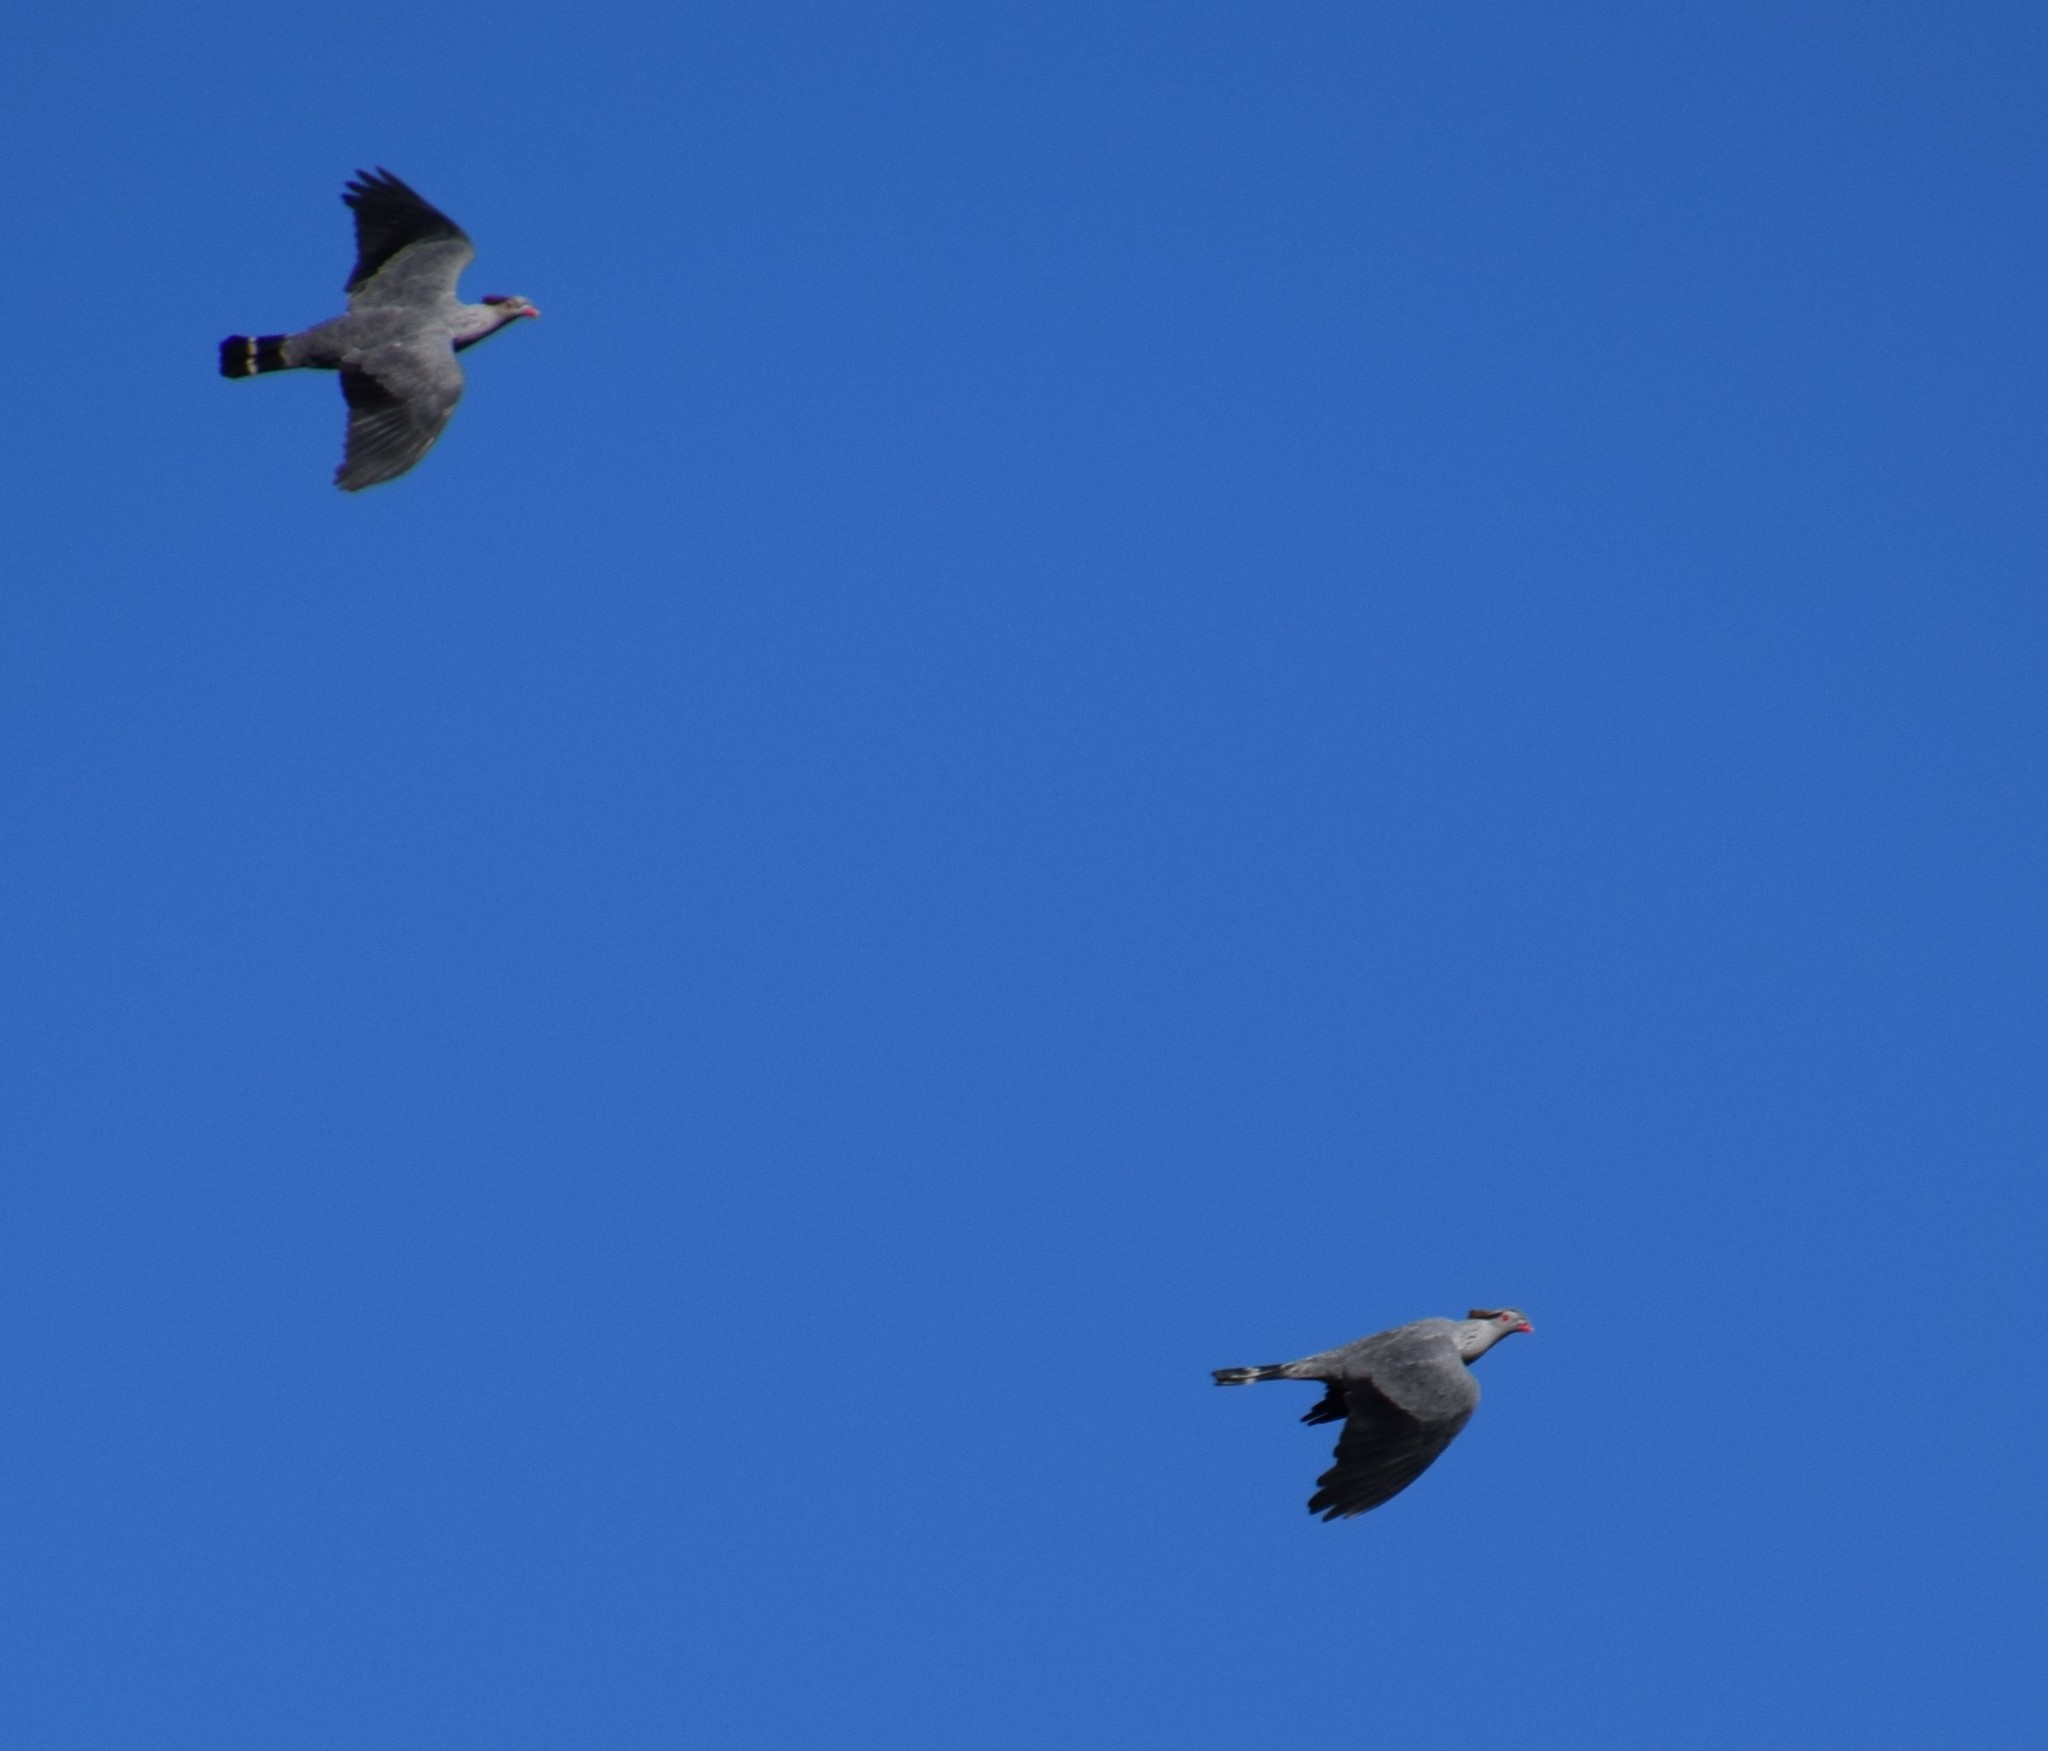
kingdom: Animalia
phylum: Chordata
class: Aves
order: Columbiformes
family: Columbidae
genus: Lopholaimus
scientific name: Lopholaimus antarcticus
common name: Topknot pigeon
